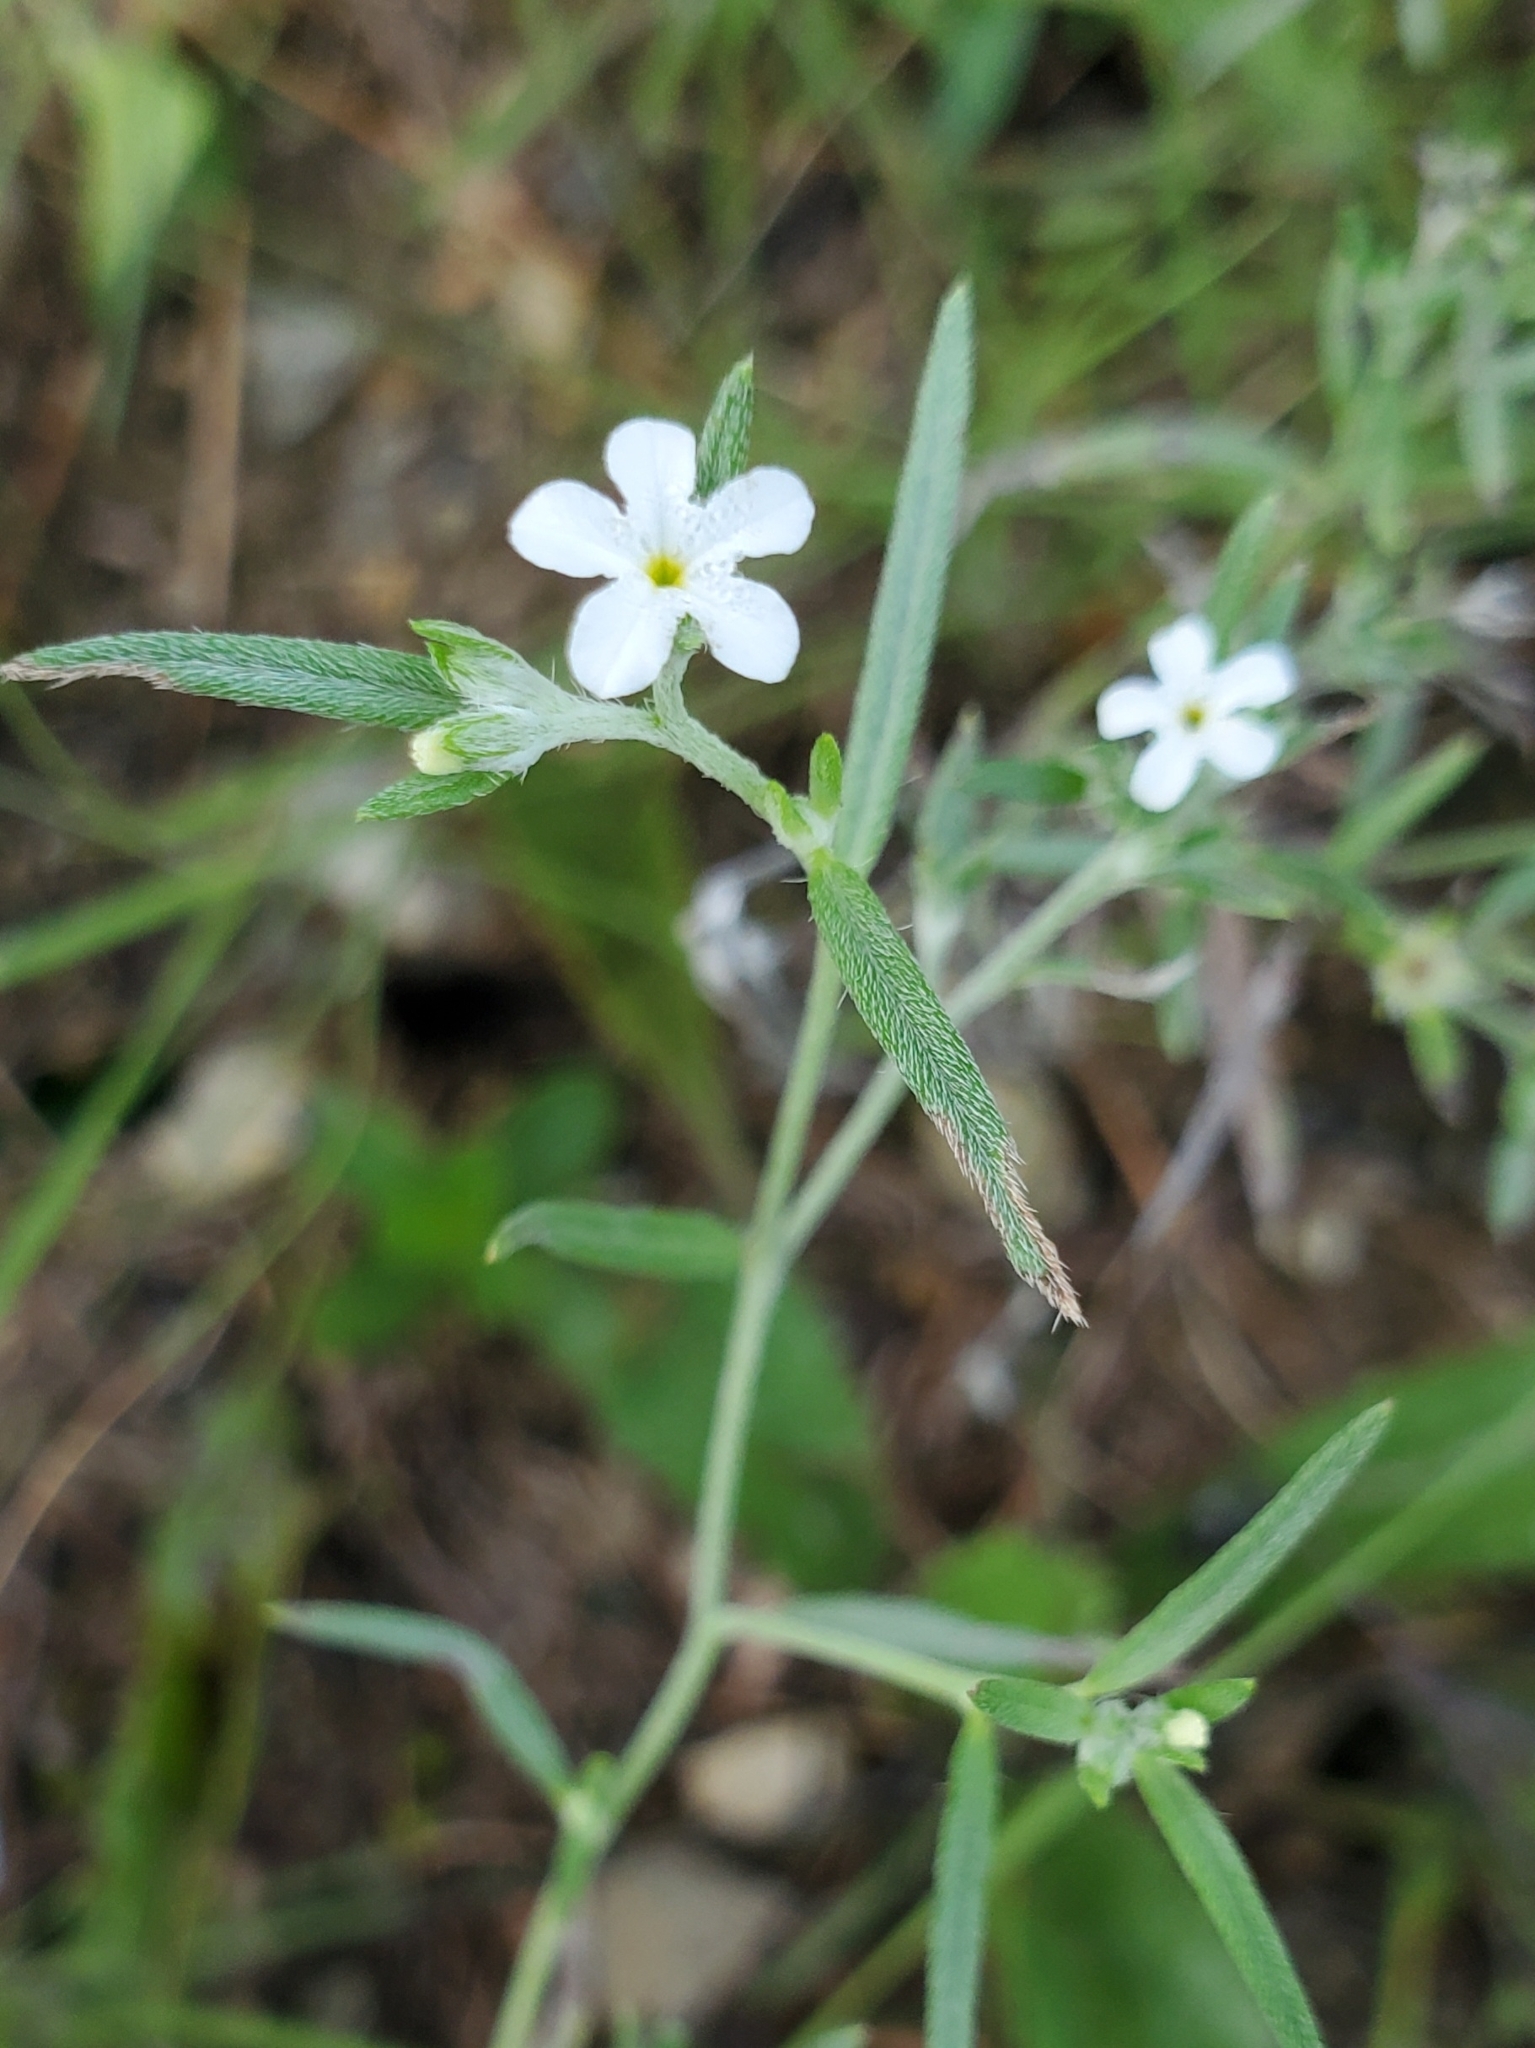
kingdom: Plantae
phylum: Tracheophyta
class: Magnoliopsida
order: Boraginales
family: Heliotropiaceae
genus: Euploca
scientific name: Euploca tenella
